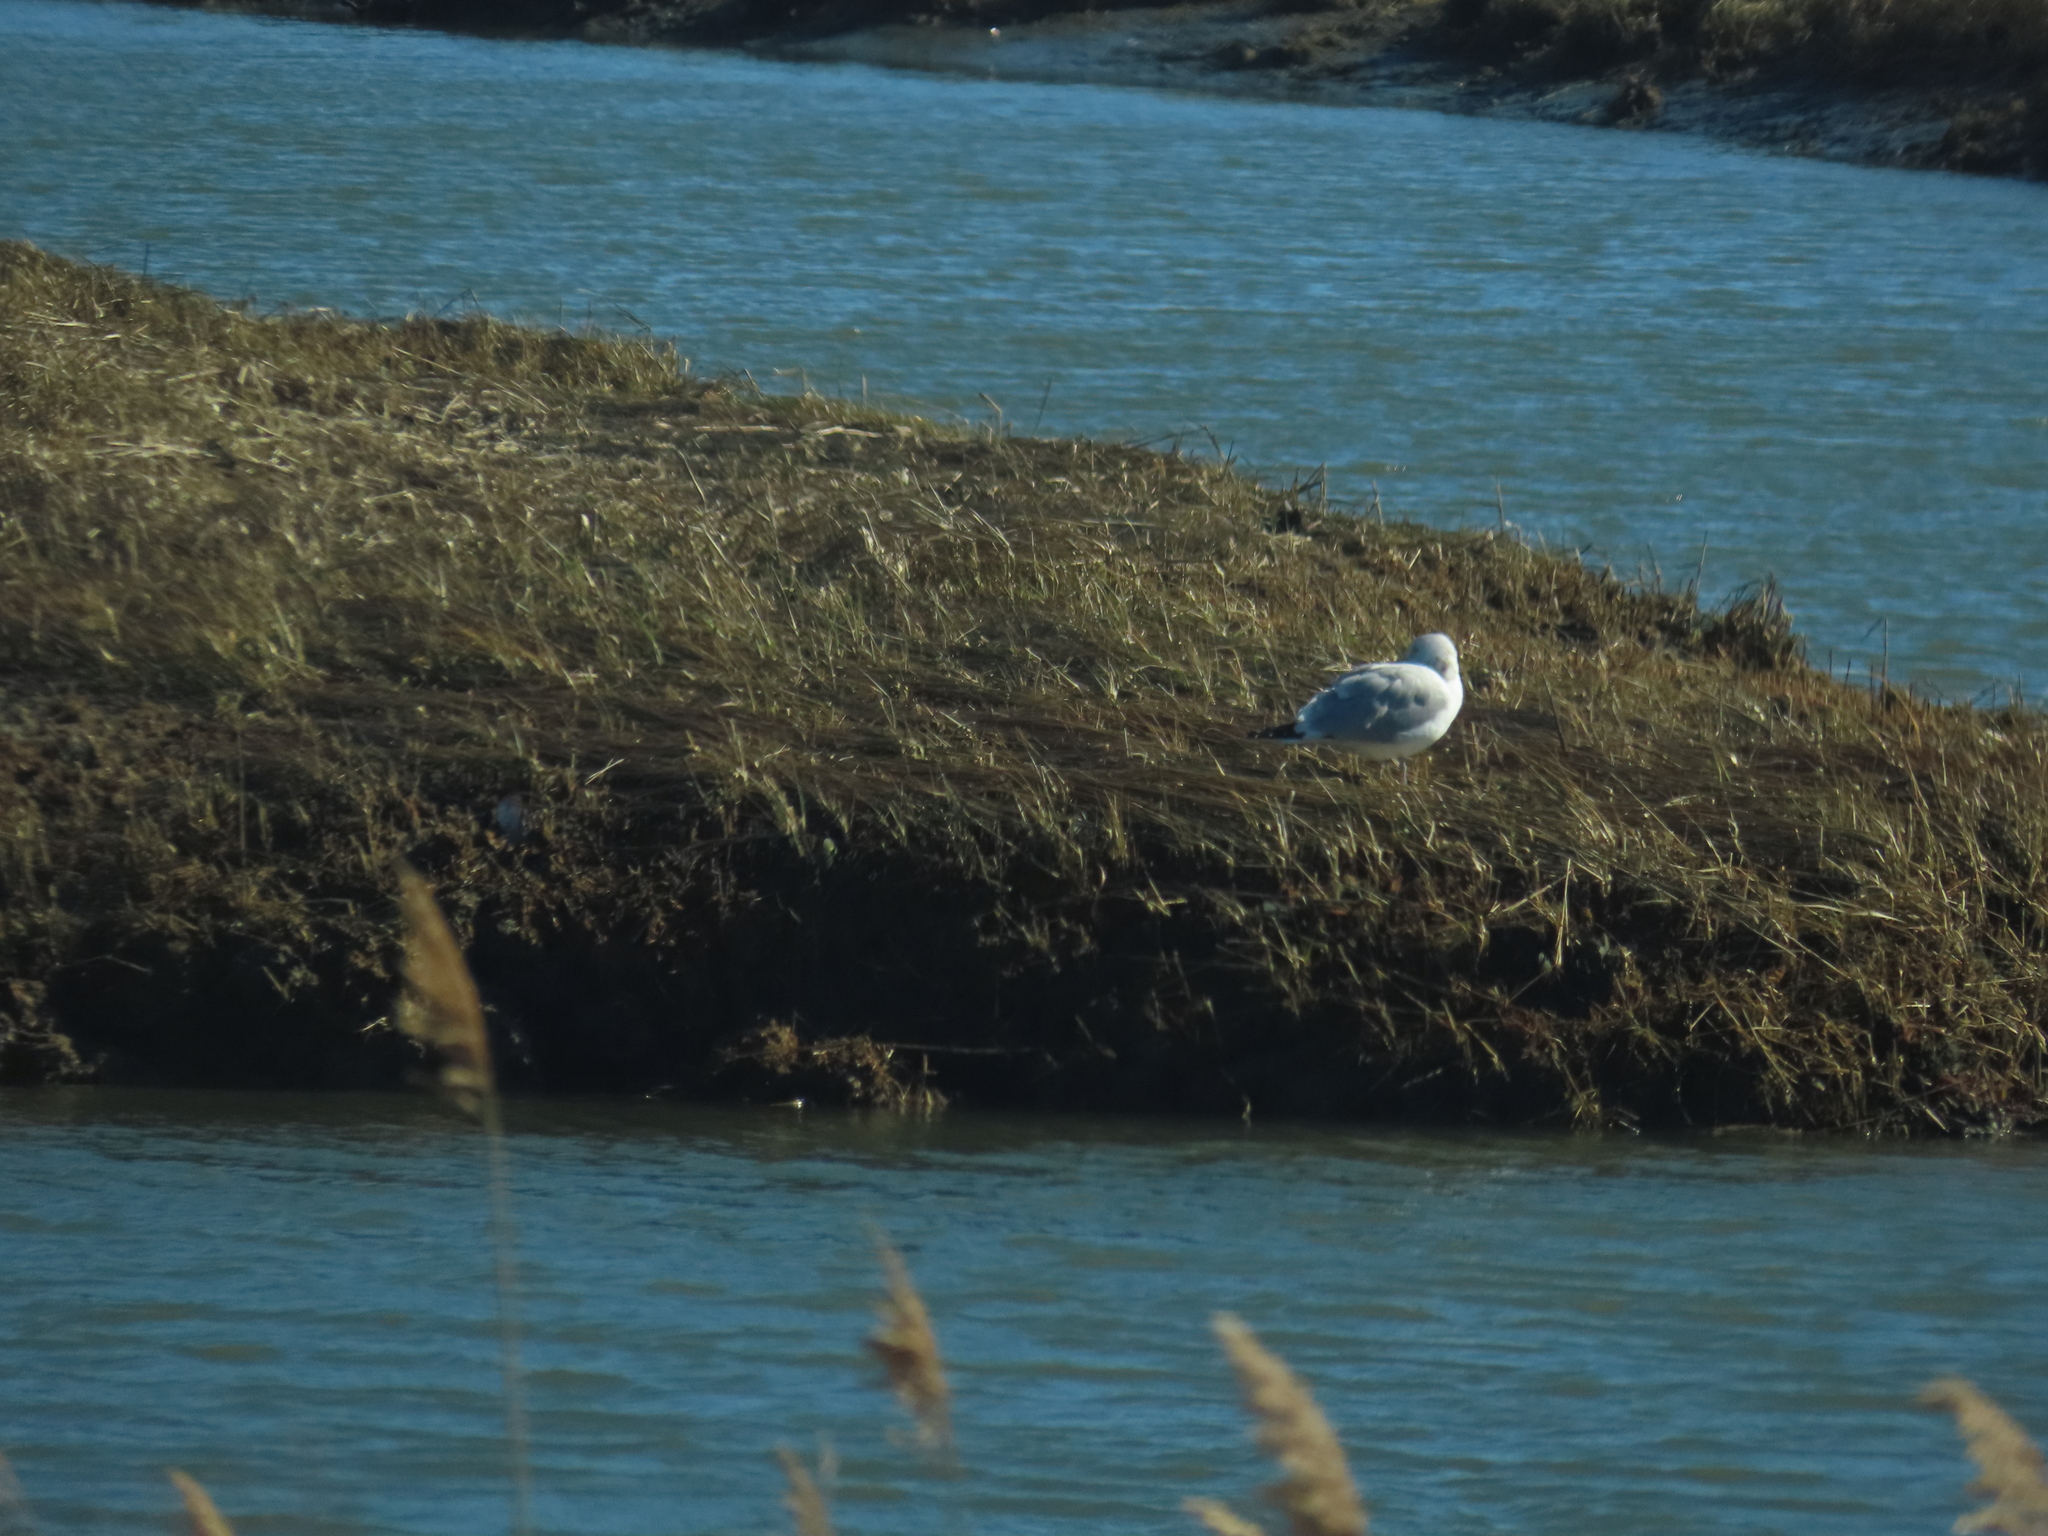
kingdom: Animalia
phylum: Chordata
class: Aves
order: Charadriiformes
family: Laridae
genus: Larus
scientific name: Larus argentatus
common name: Herring gull
